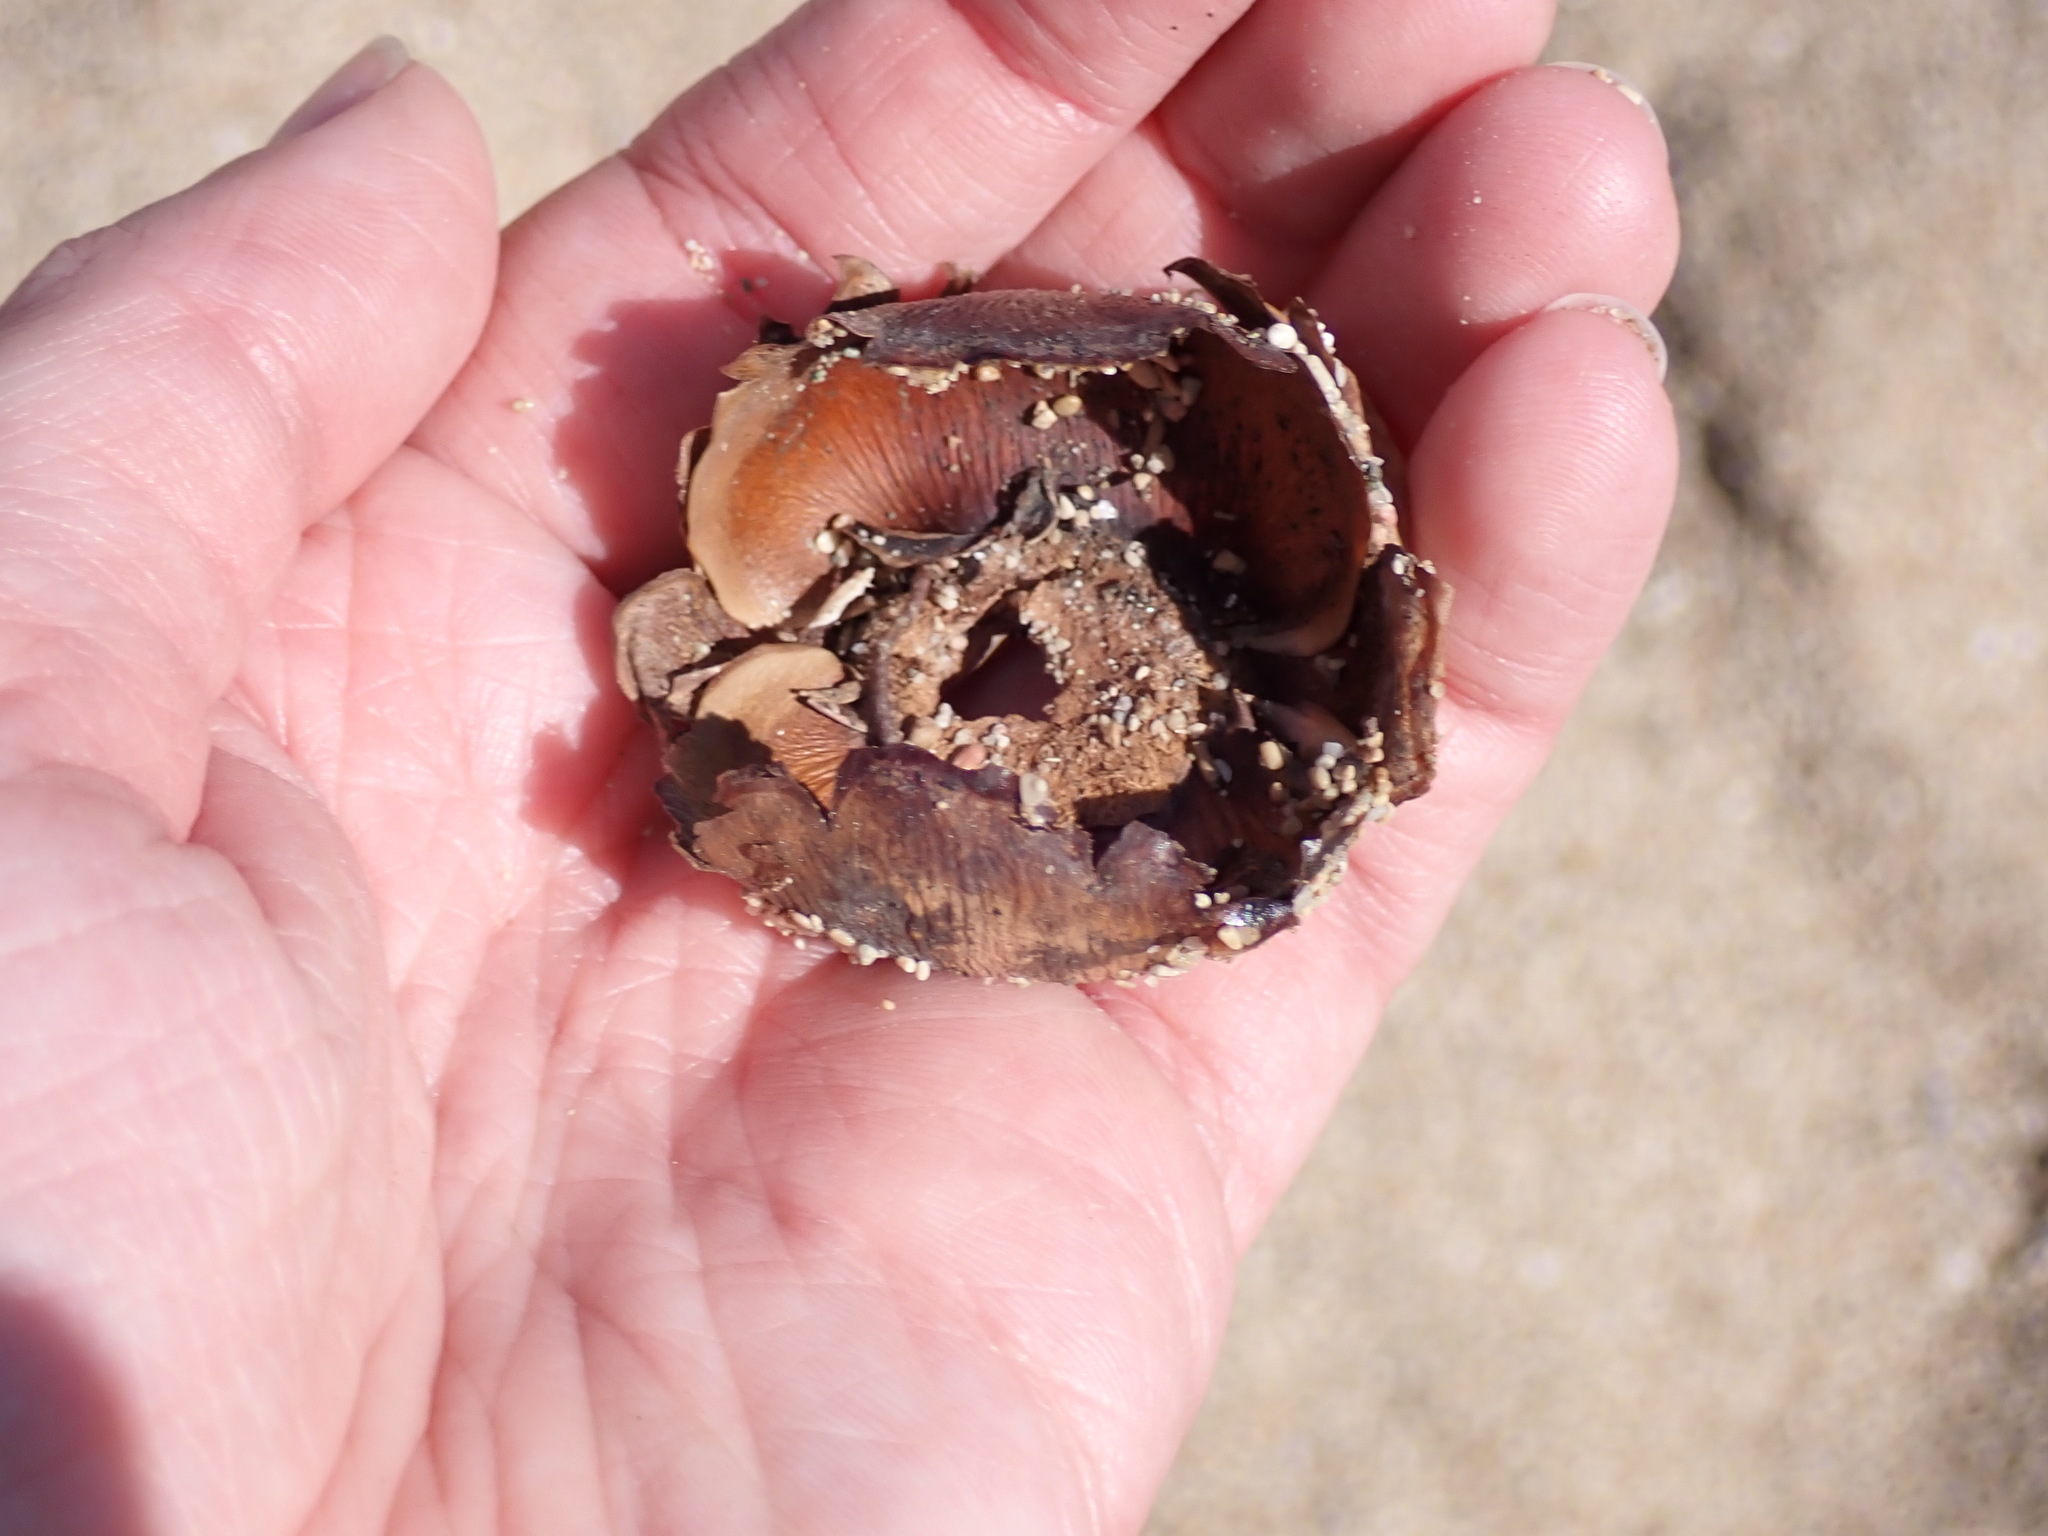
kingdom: Plantae
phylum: Tracheophyta
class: Liliopsida
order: Arecales
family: Arecaceae
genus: Cocos
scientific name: Cocos nucifera
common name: Coconut palm
